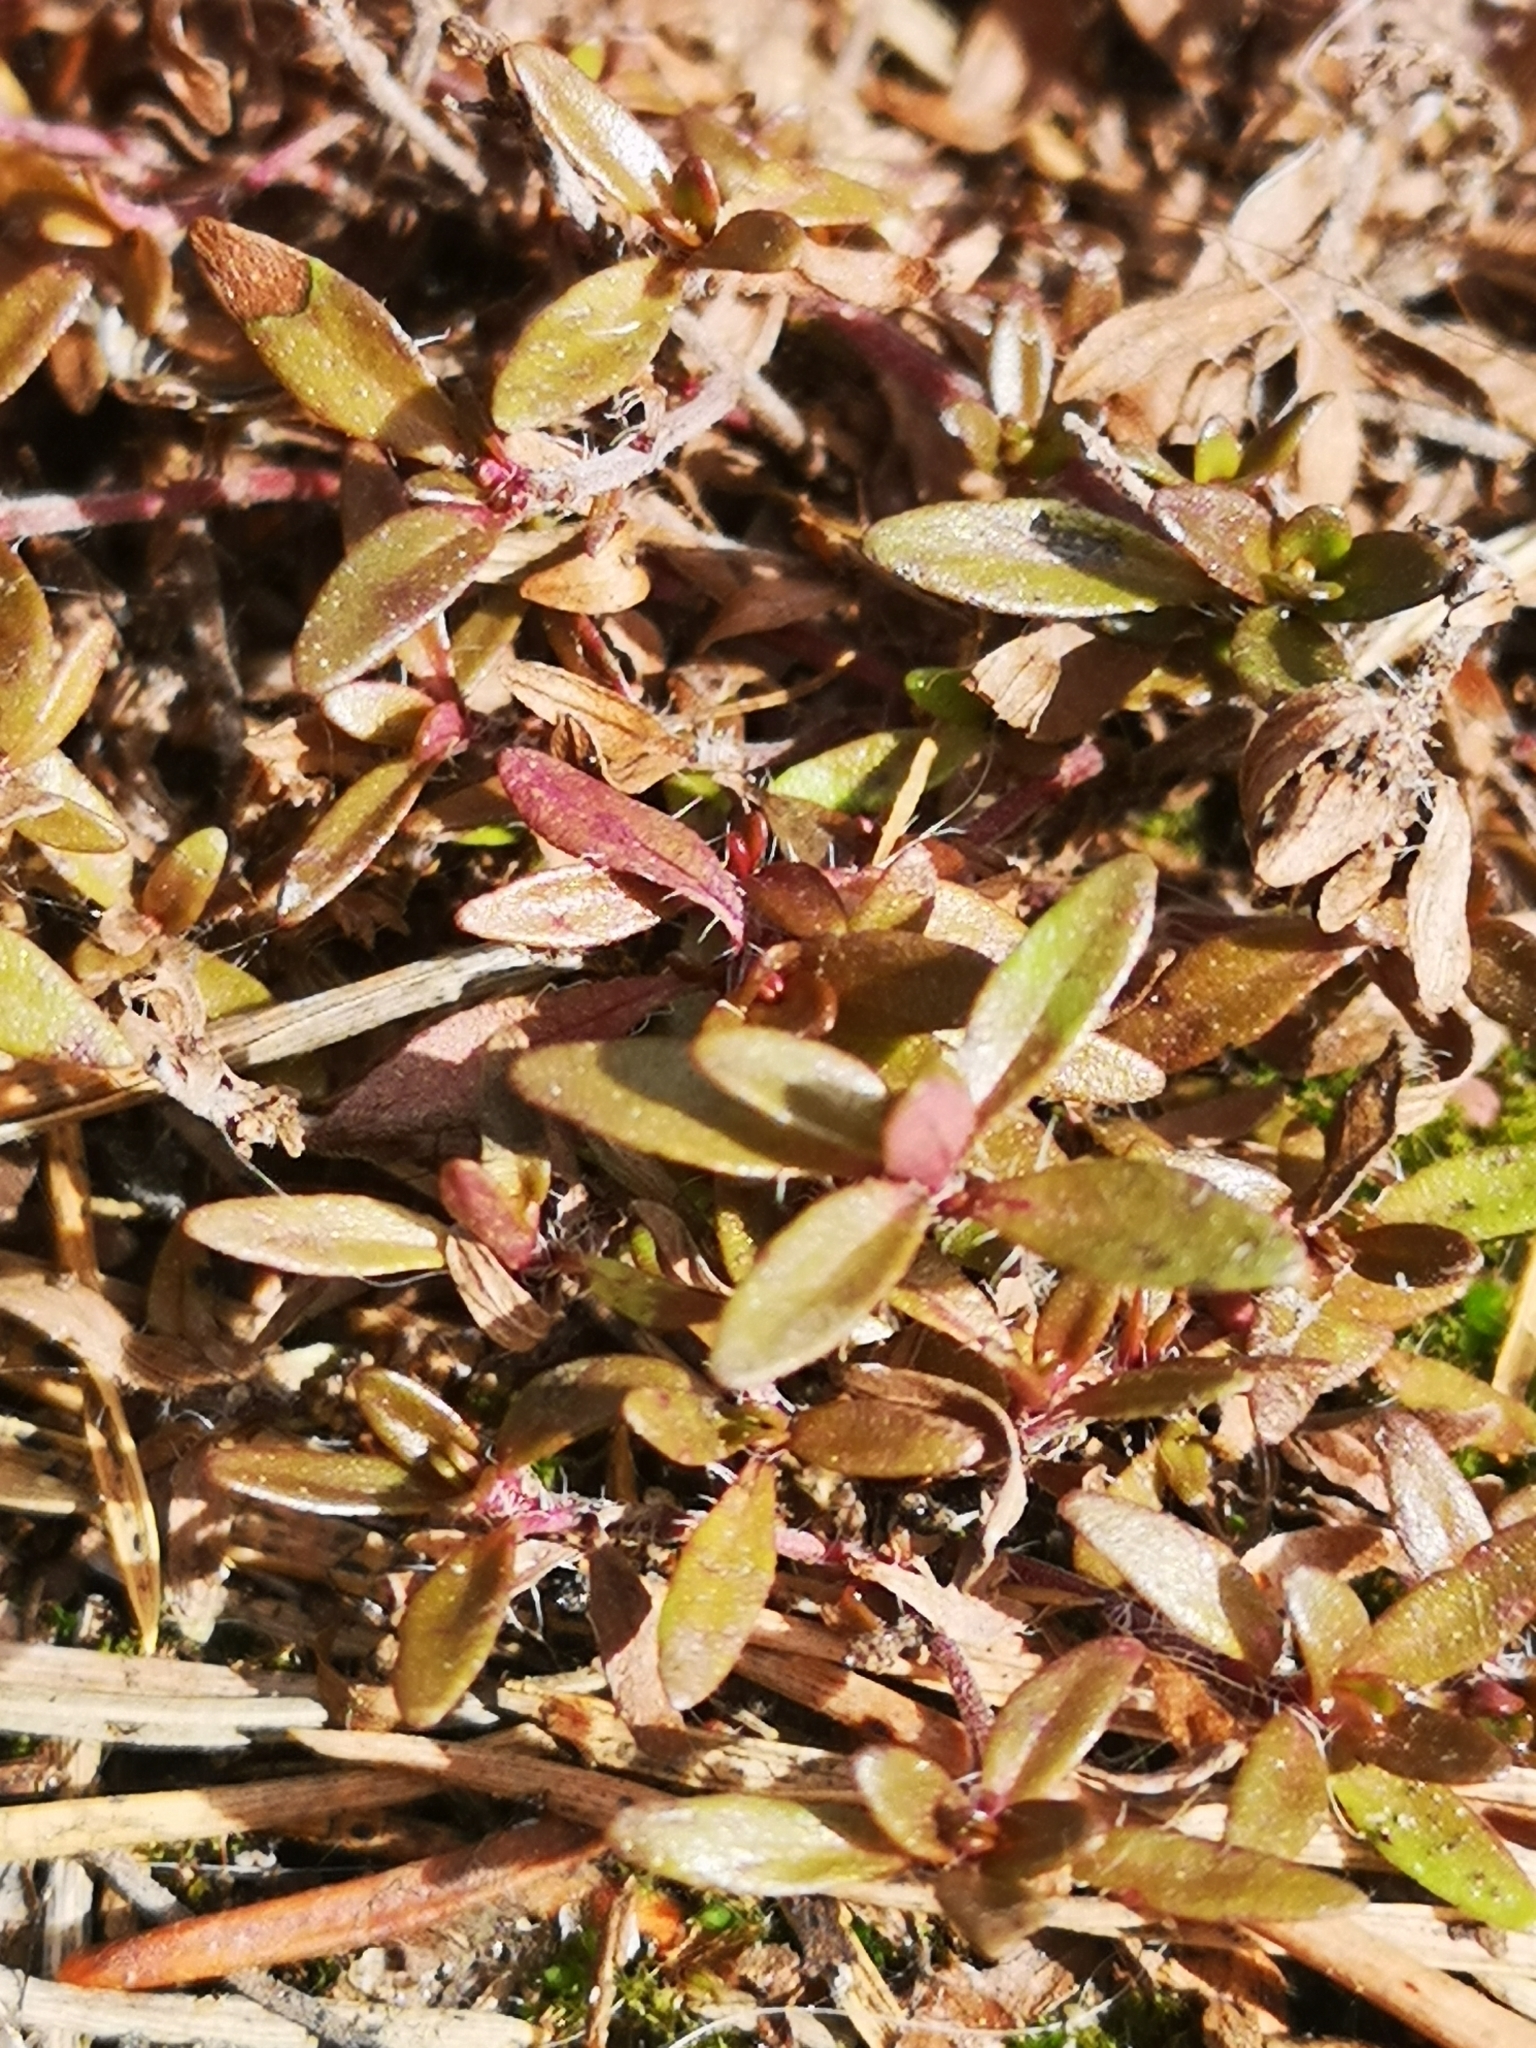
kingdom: Plantae
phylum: Tracheophyta
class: Magnoliopsida
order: Lamiales
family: Lamiaceae
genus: Thymus
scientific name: Thymus serpyllum
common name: Breckland thyme
